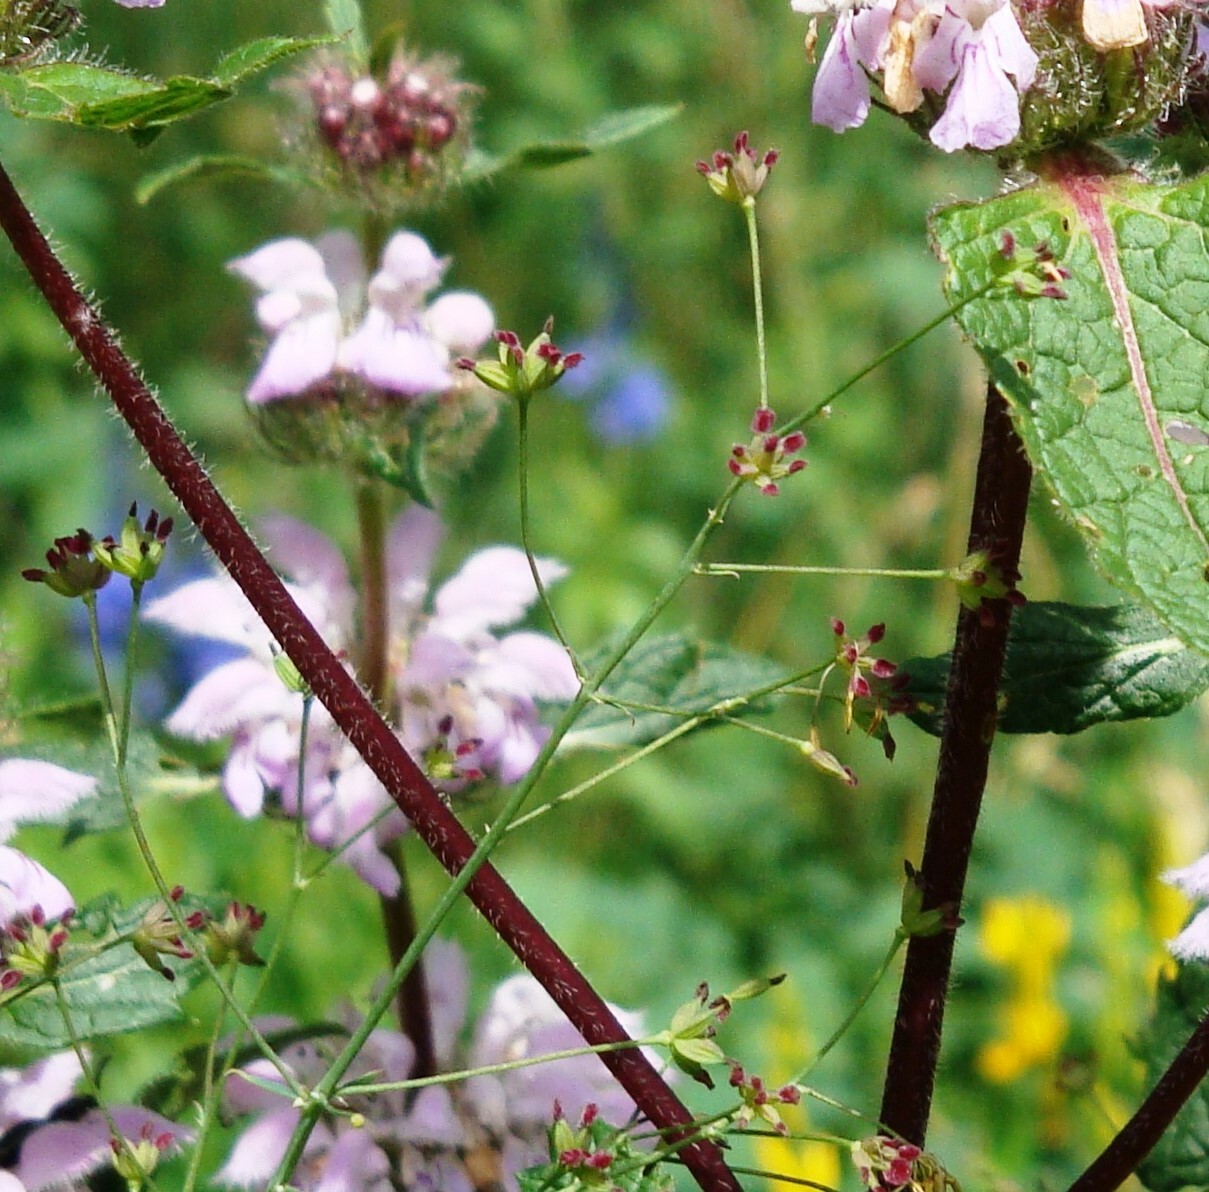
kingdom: Plantae
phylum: Tracheophyta
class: Magnoliopsida
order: Ranunculales
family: Ranunculaceae
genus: Thalictrum
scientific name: Thalictrum simplex
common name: Small meadow-rue
